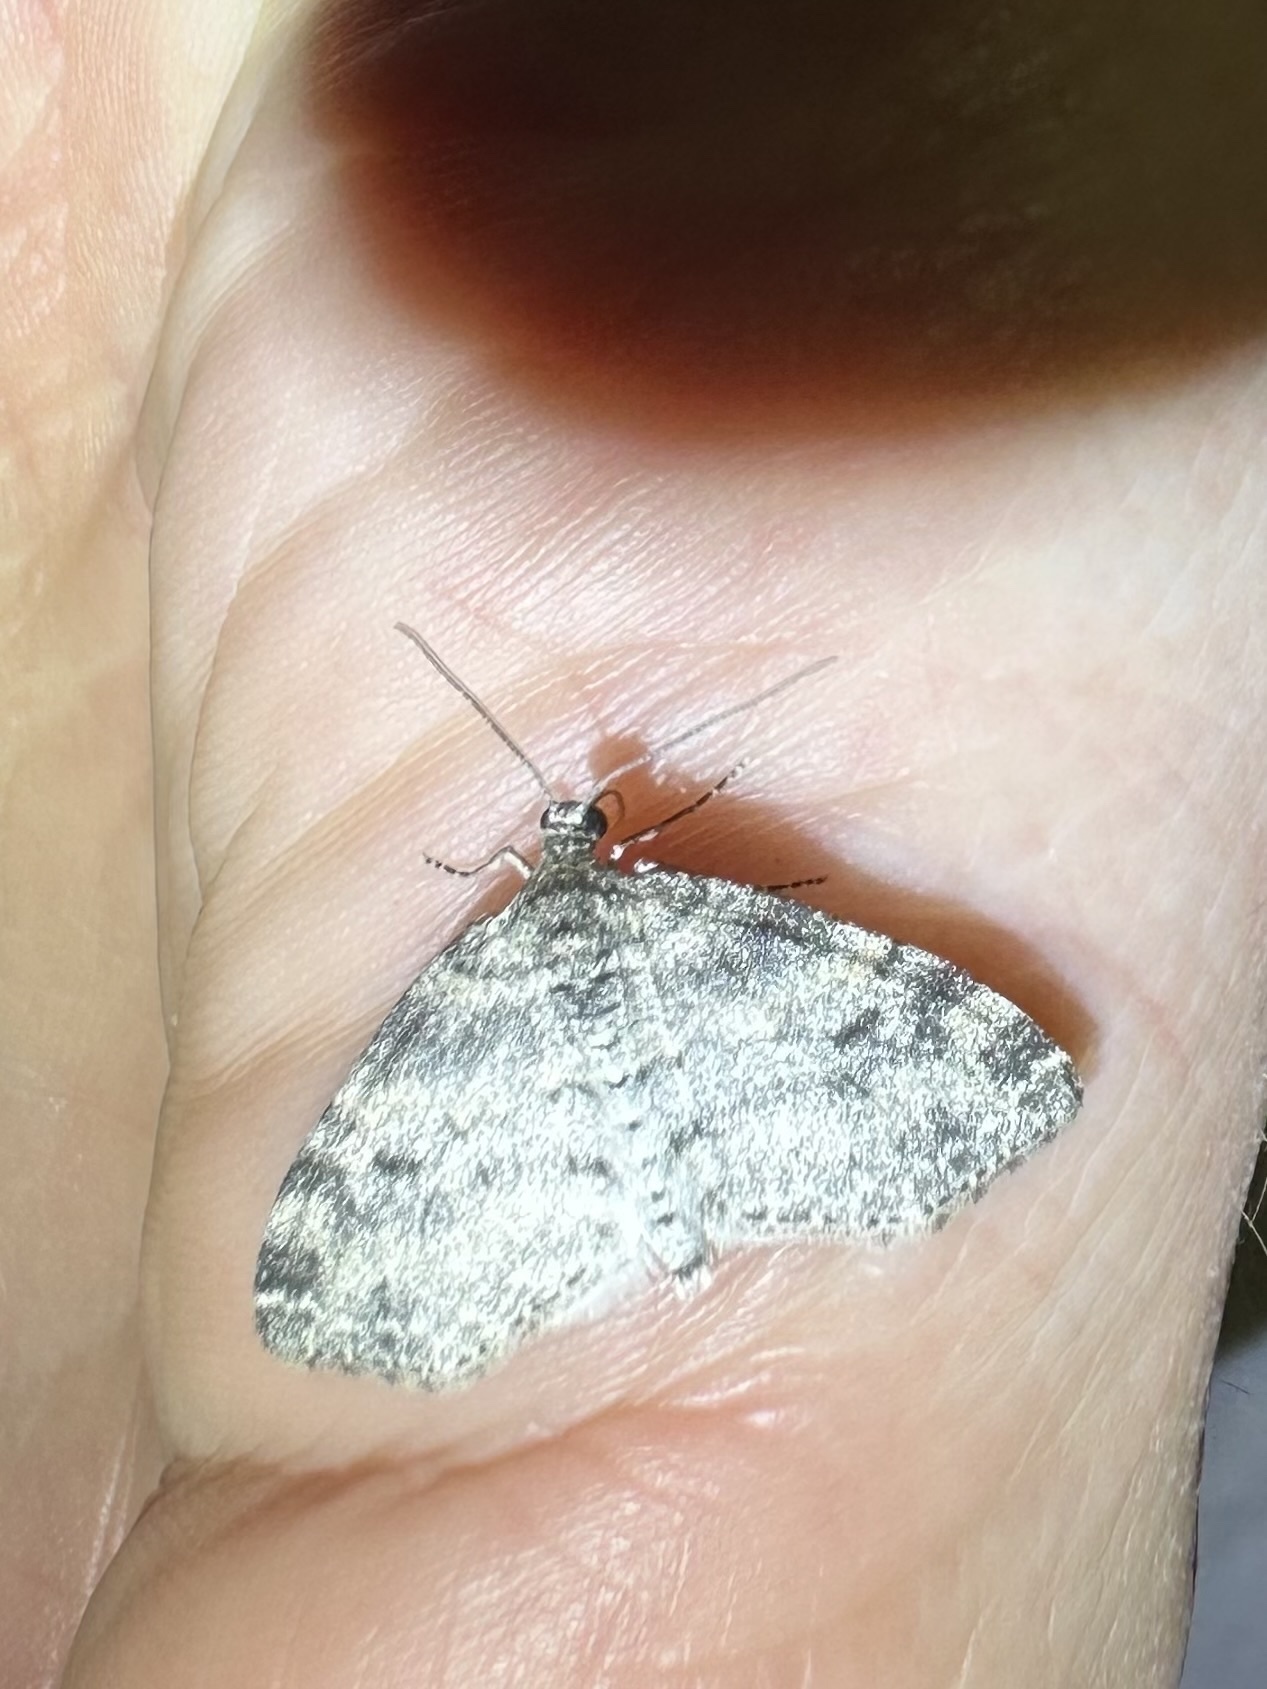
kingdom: Animalia
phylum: Arthropoda
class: Insecta
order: Lepidoptera
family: Geometridae
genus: Lobophora
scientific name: Lobophora nivigerata
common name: Powdered bigwing
